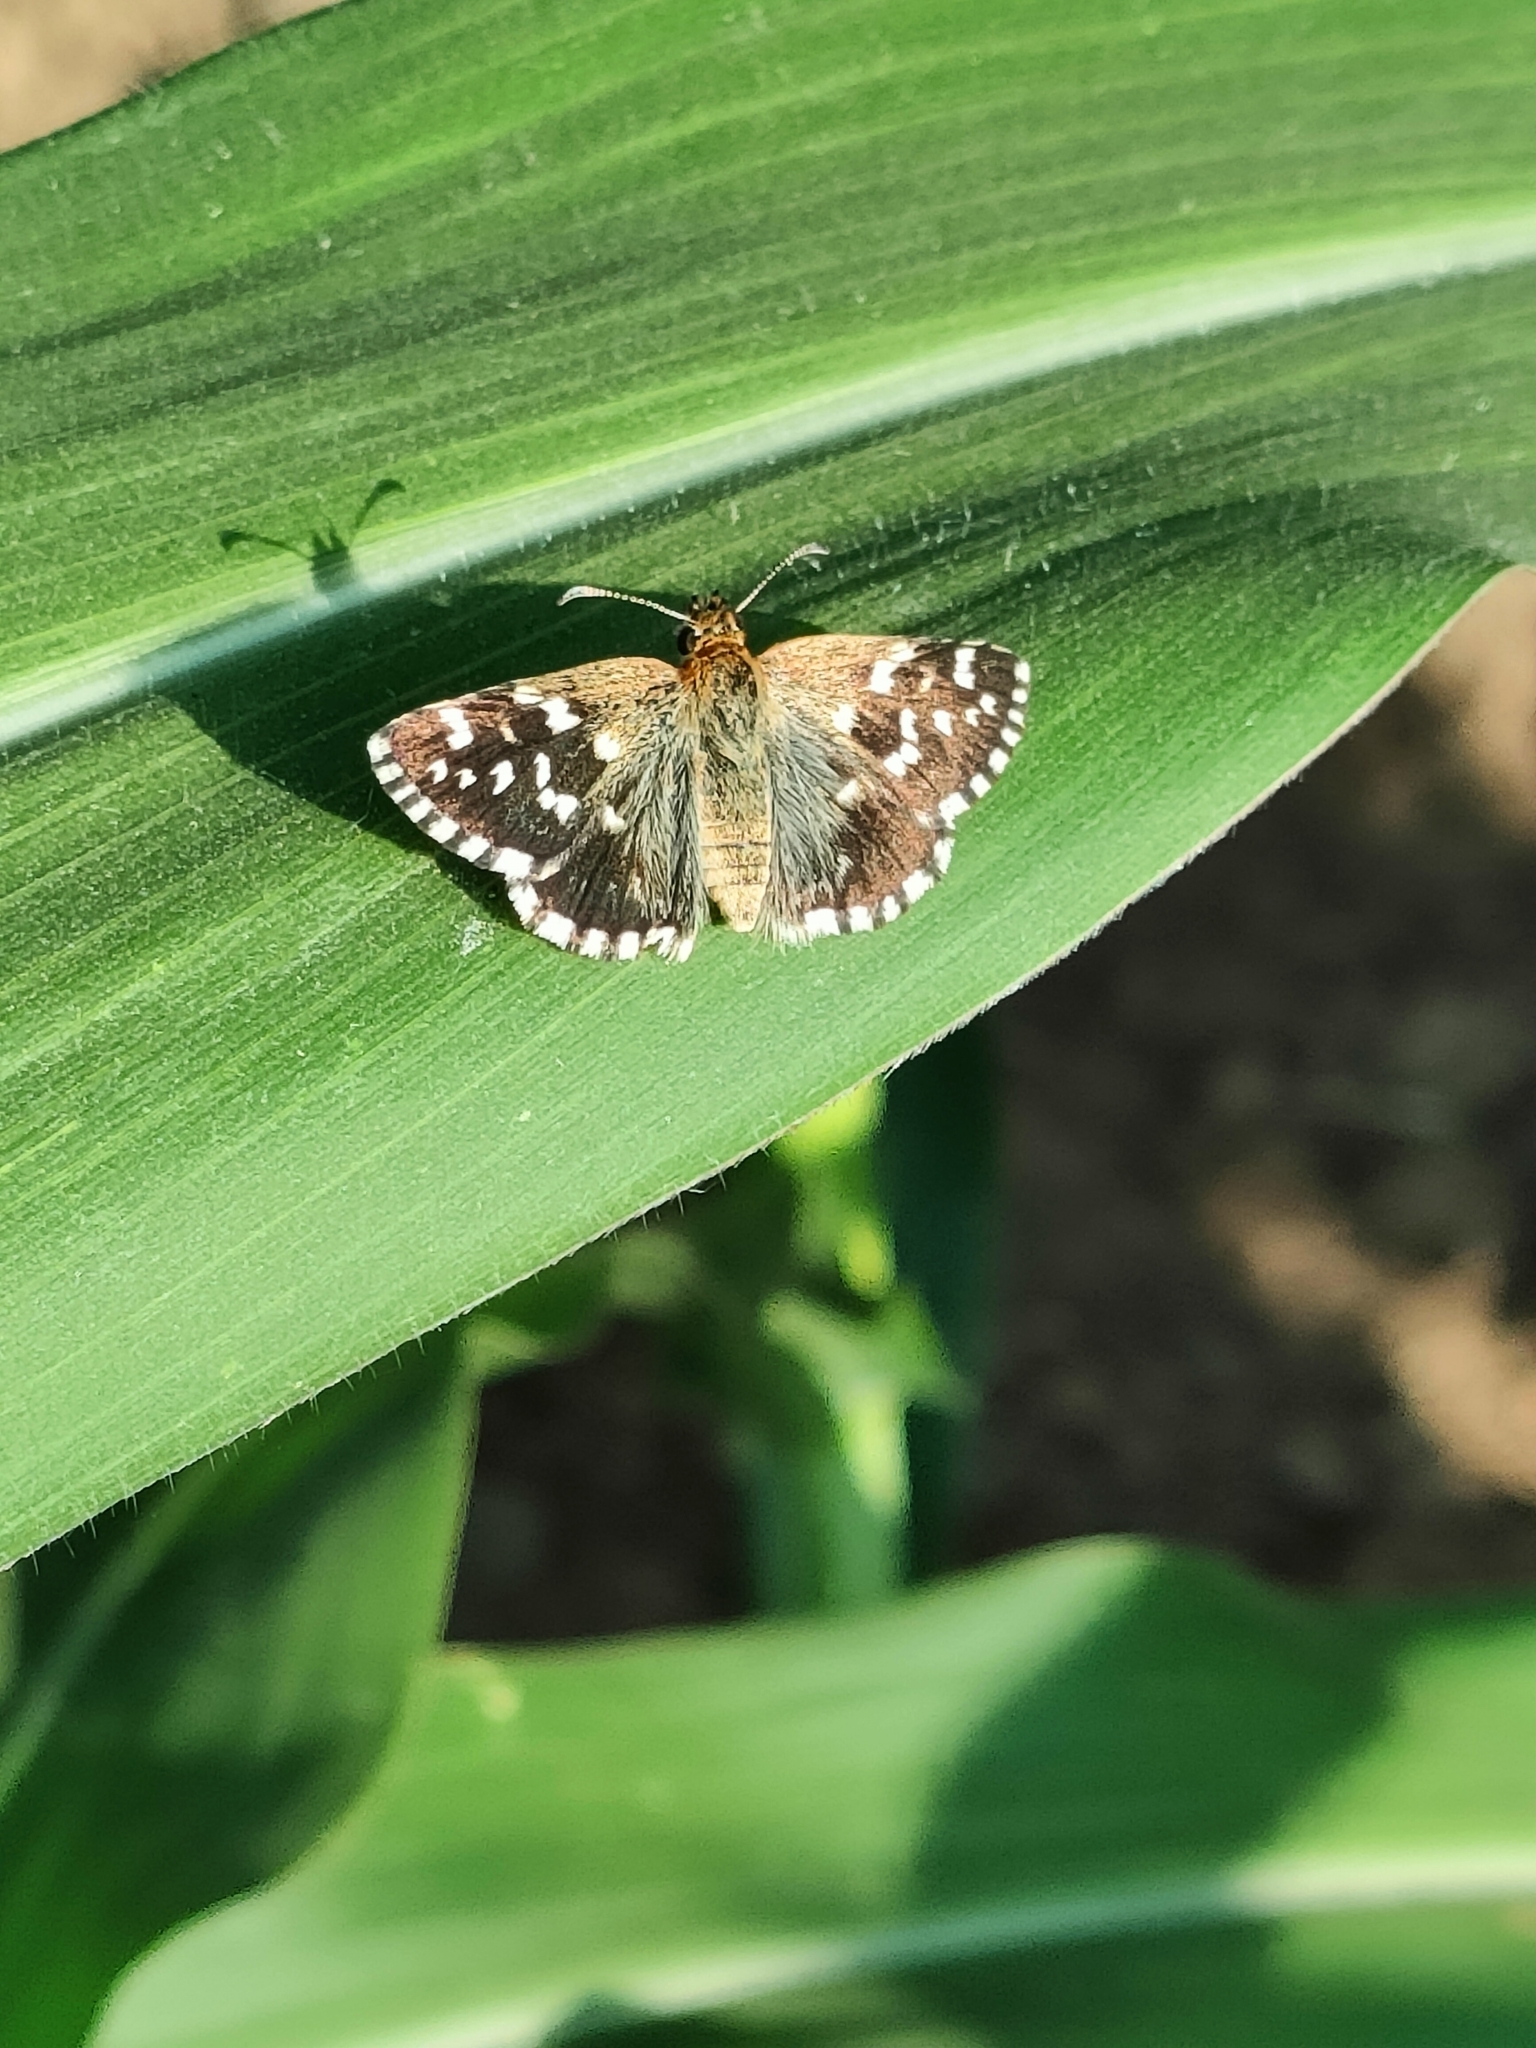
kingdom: Animalia
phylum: Arthropoda
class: Insecta
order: Lepidoptera
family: Hesperiidae
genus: Pyrgus
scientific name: Pyrgus malvoides
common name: Southern grizzled skipper
